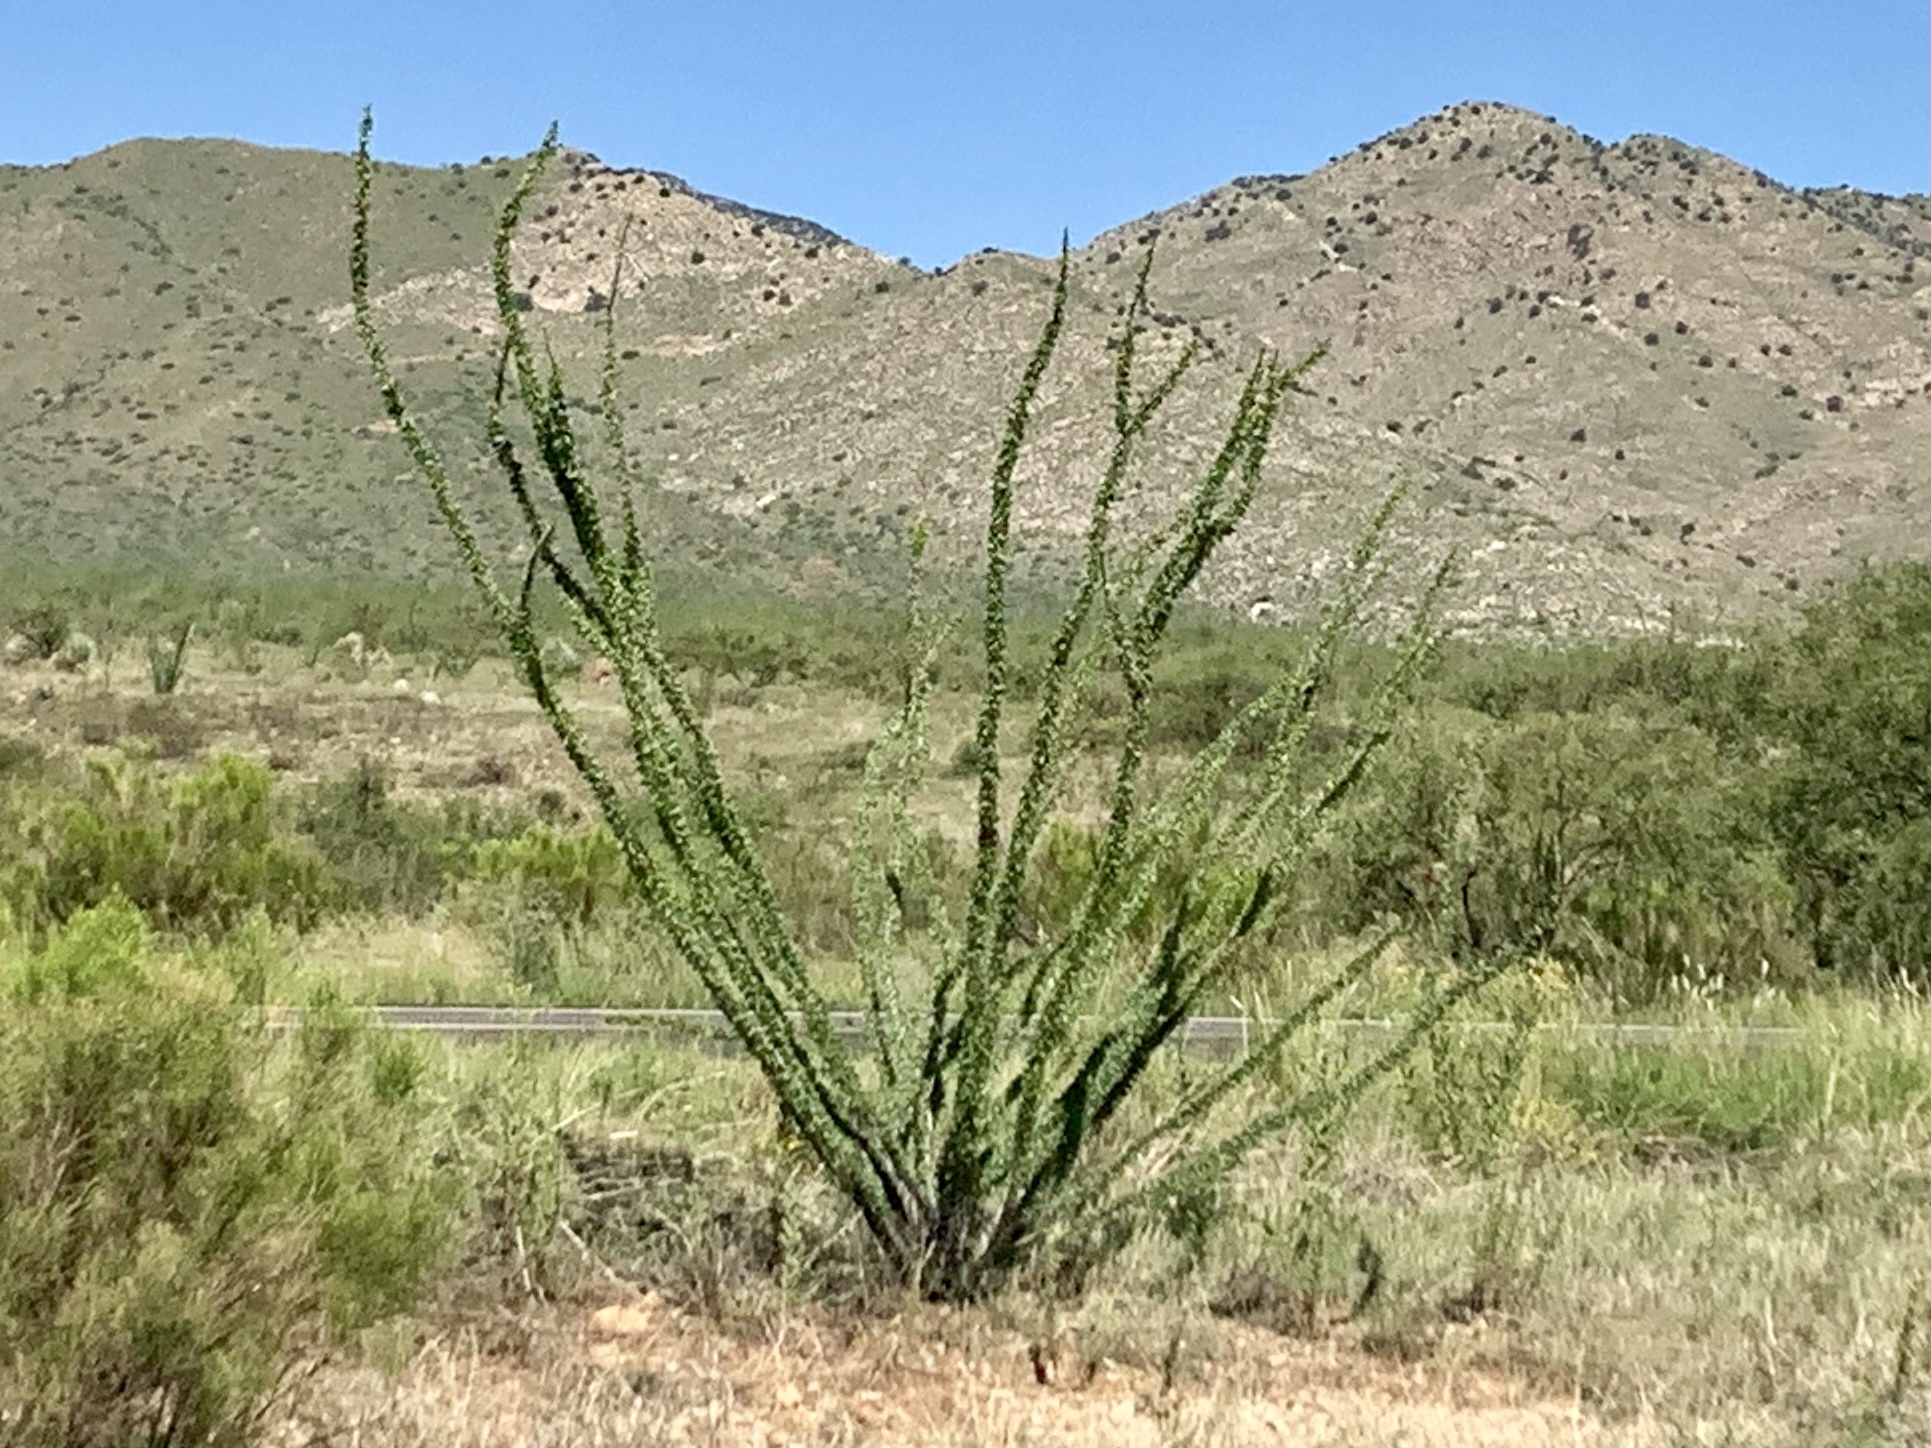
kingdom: Plantae
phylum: Tracheophyta
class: Magnoliopsida
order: Ericales
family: Fouquieriaceae
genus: Fouquieria
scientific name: Fouquieria splendens
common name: Vine-cactus
